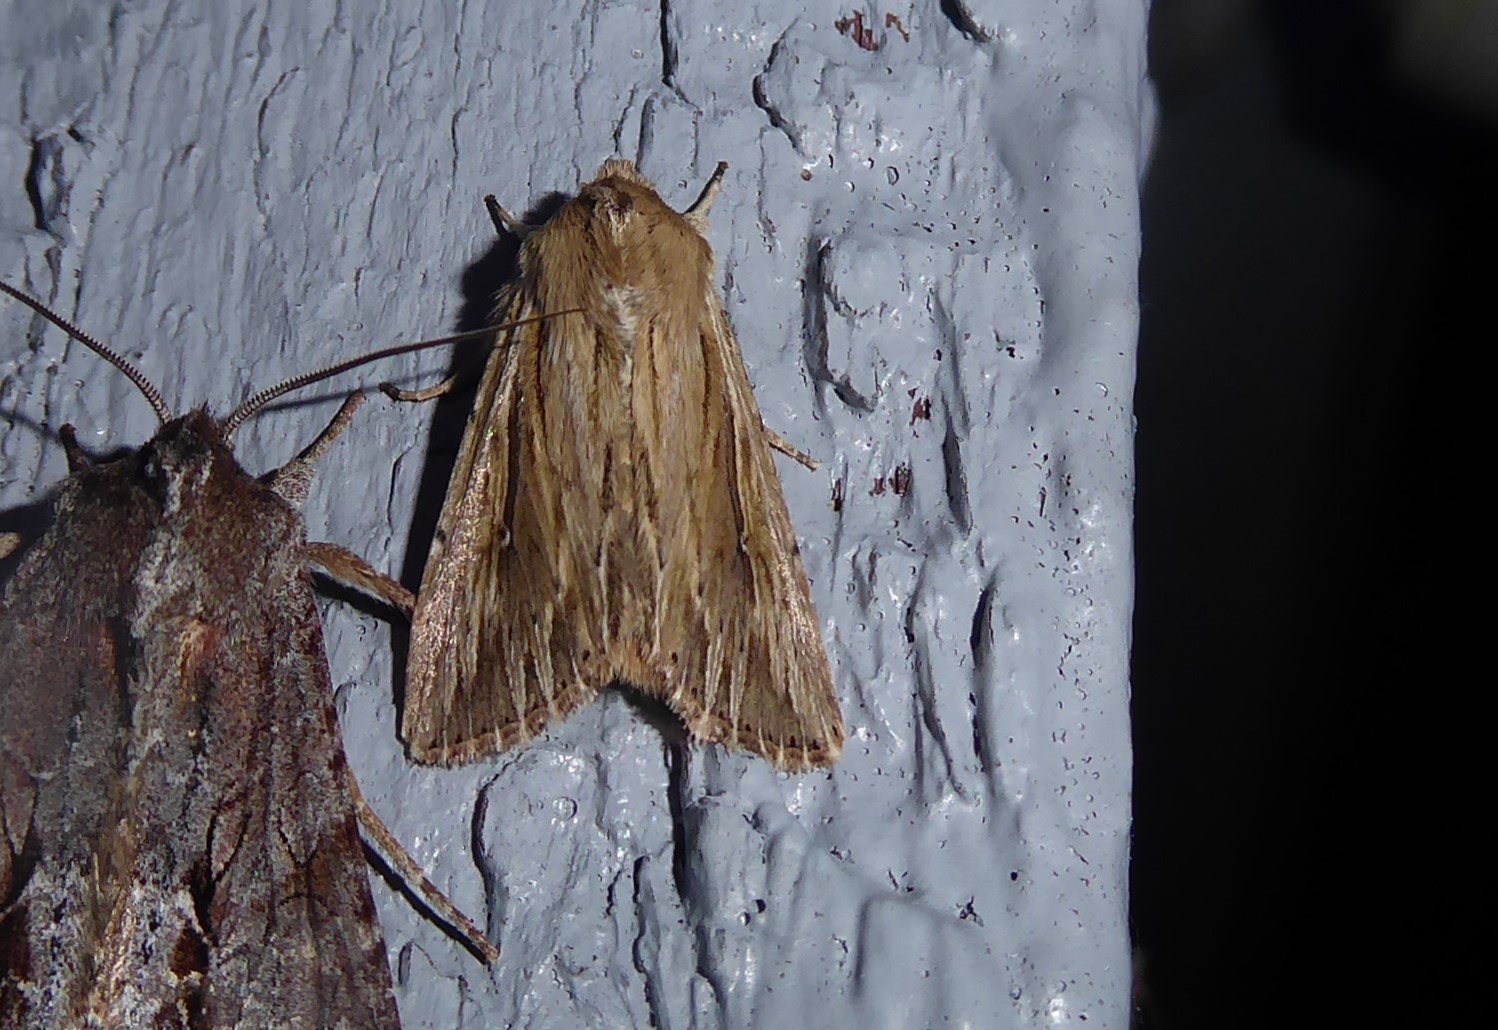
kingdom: Animalia
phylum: Arthropoda
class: Insecta
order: Lepidoptera
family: Noctuidae
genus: Persectania
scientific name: Persectania aversa
